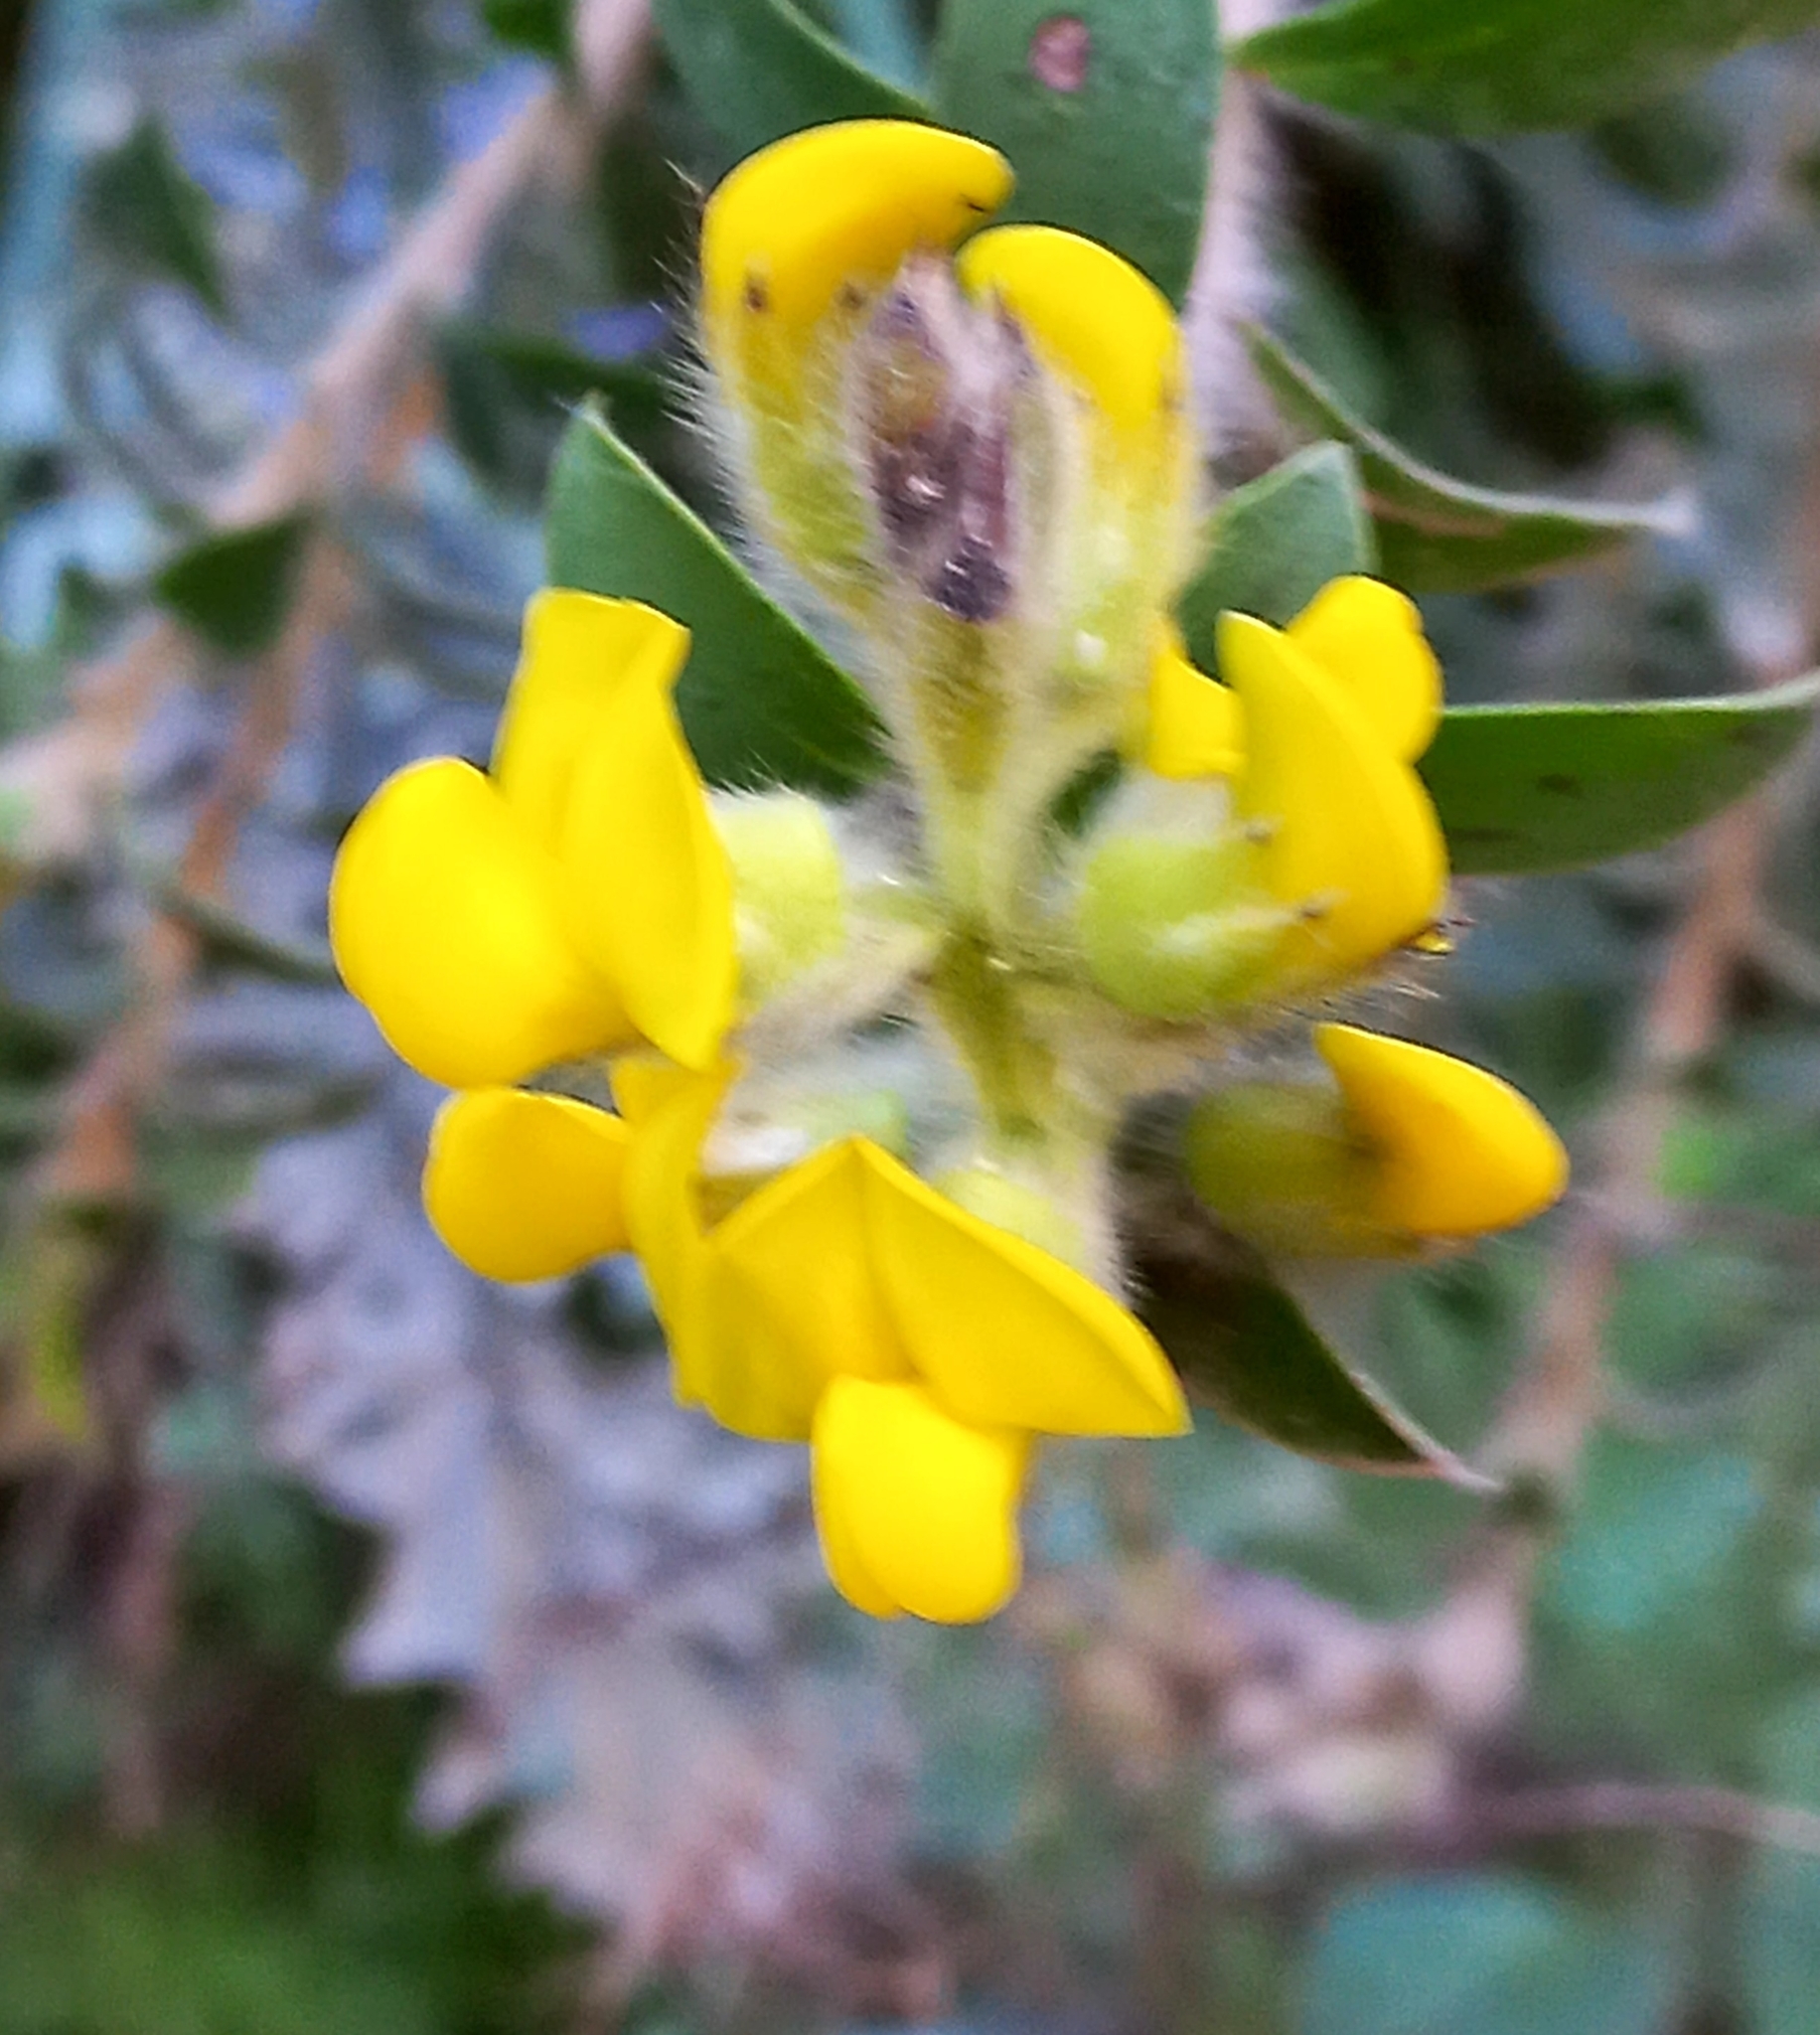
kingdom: Plantae
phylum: Tracheophyta
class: Magnoliopsida
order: Fabales
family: Fabaceae
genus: Liparia
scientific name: Liparia hirsuta
